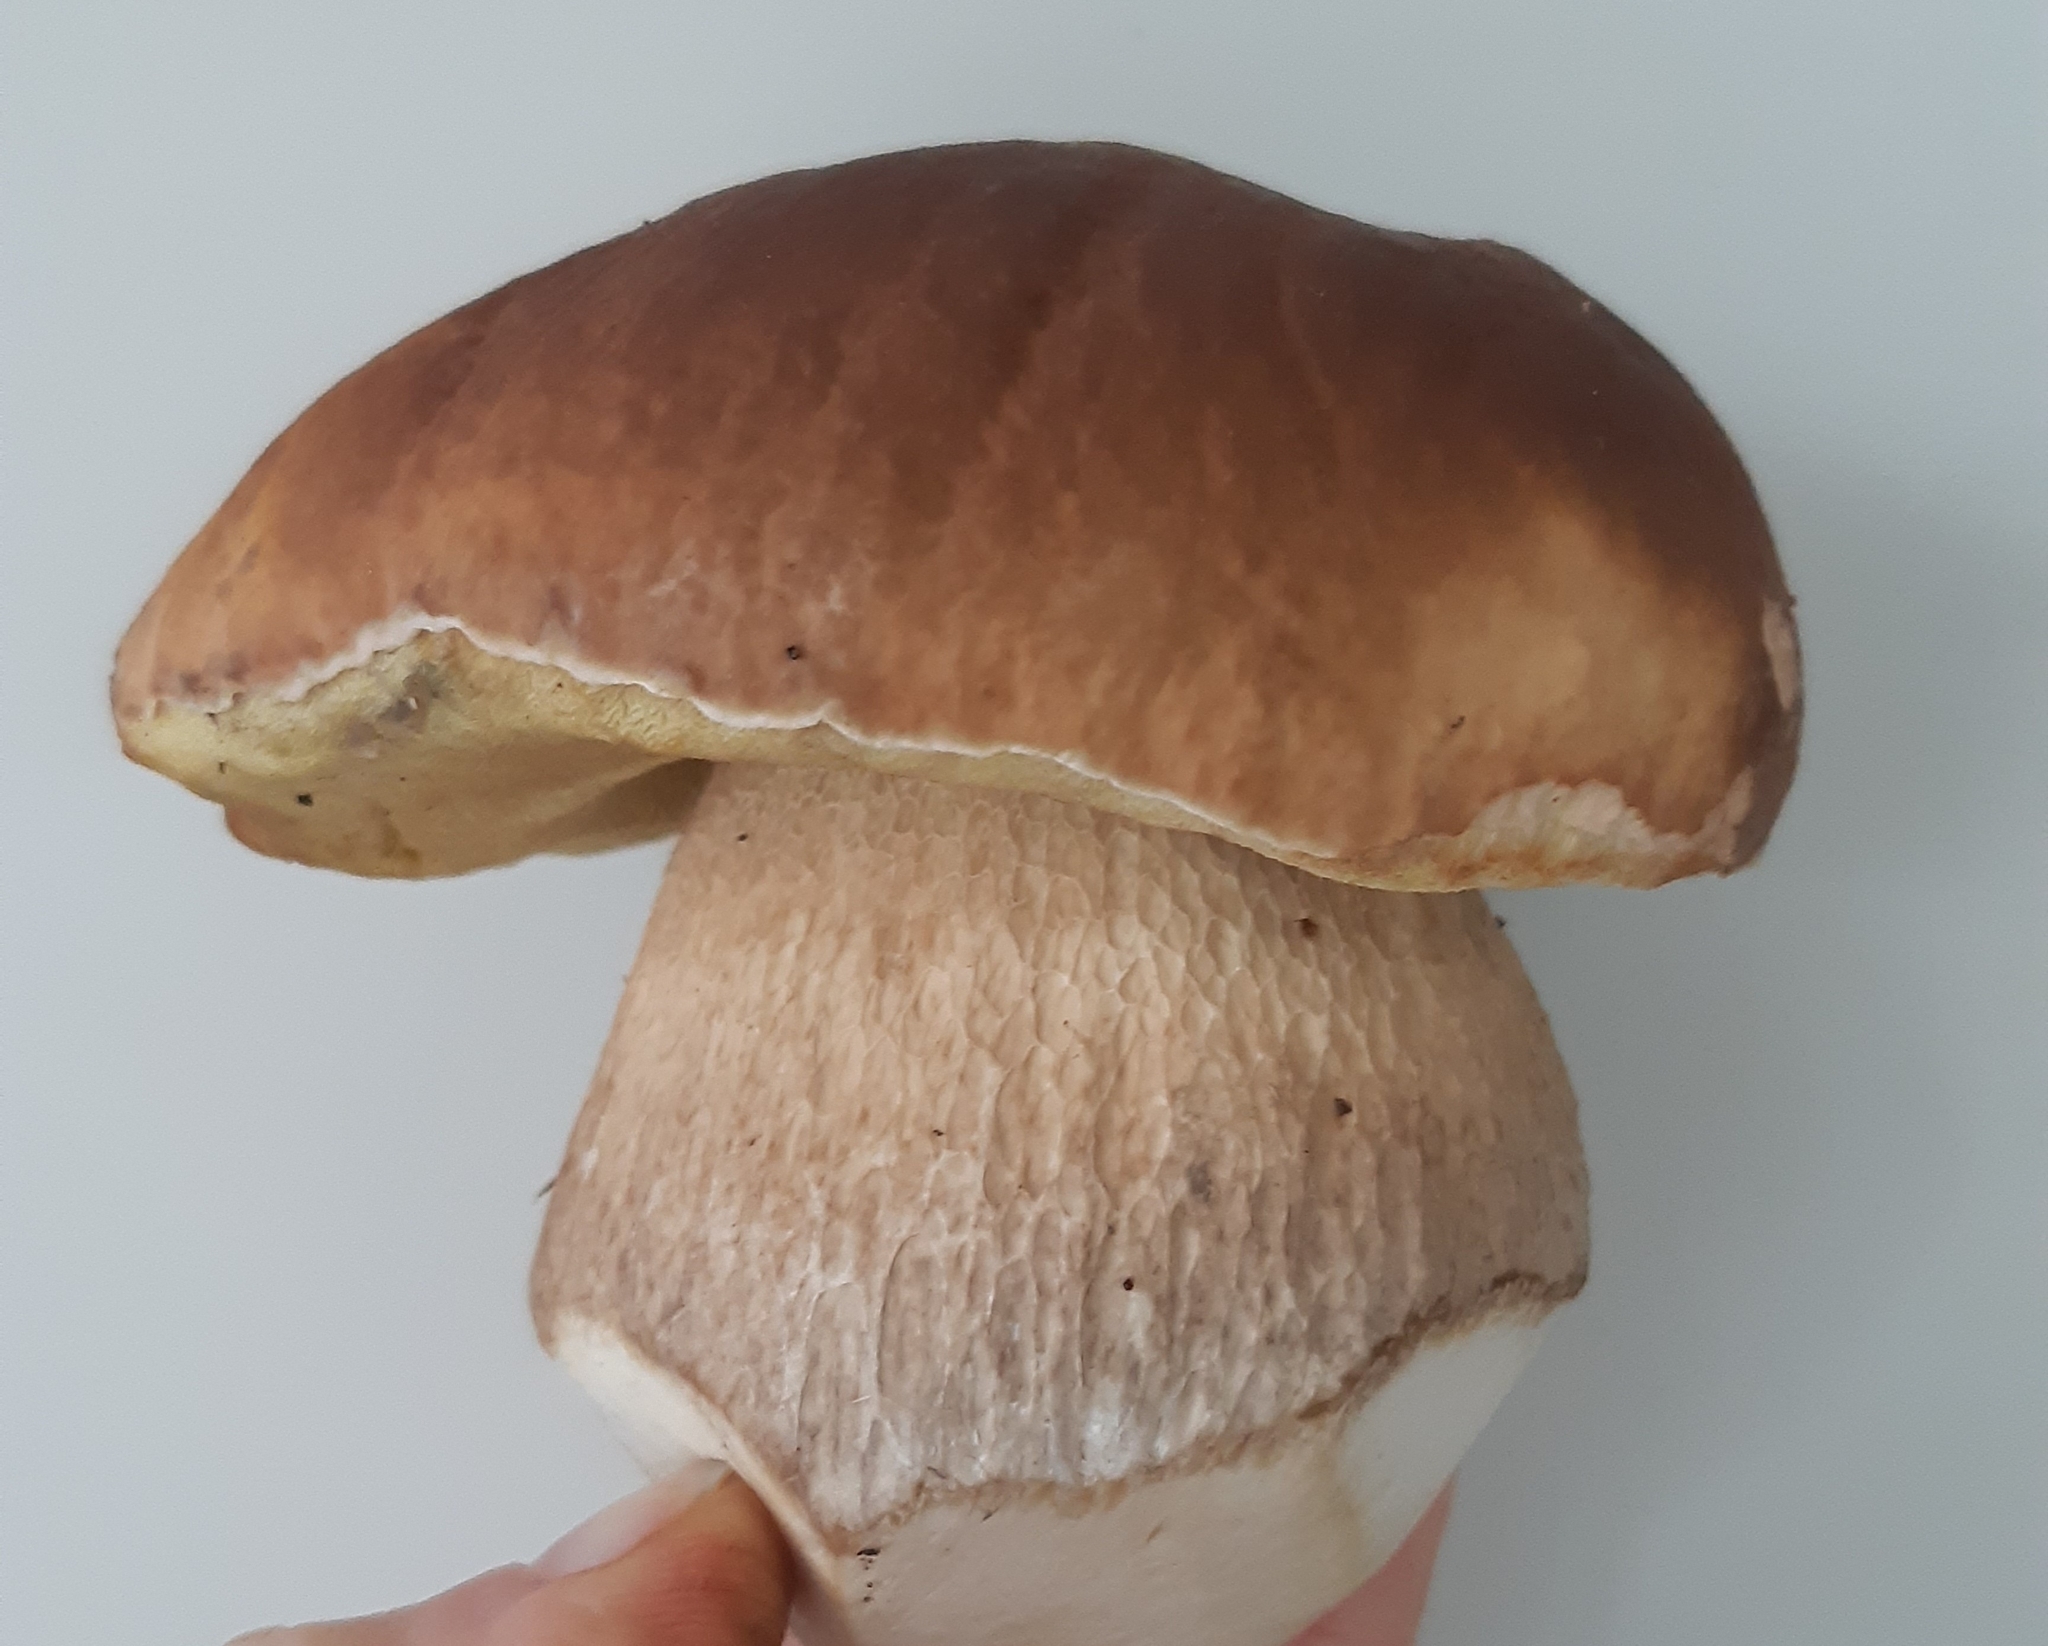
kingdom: Fungi
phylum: Basidiomycota
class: Agaricomycetes
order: Boletales
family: Boletaceae
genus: Boletus
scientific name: Boletus edulis
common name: Cep
